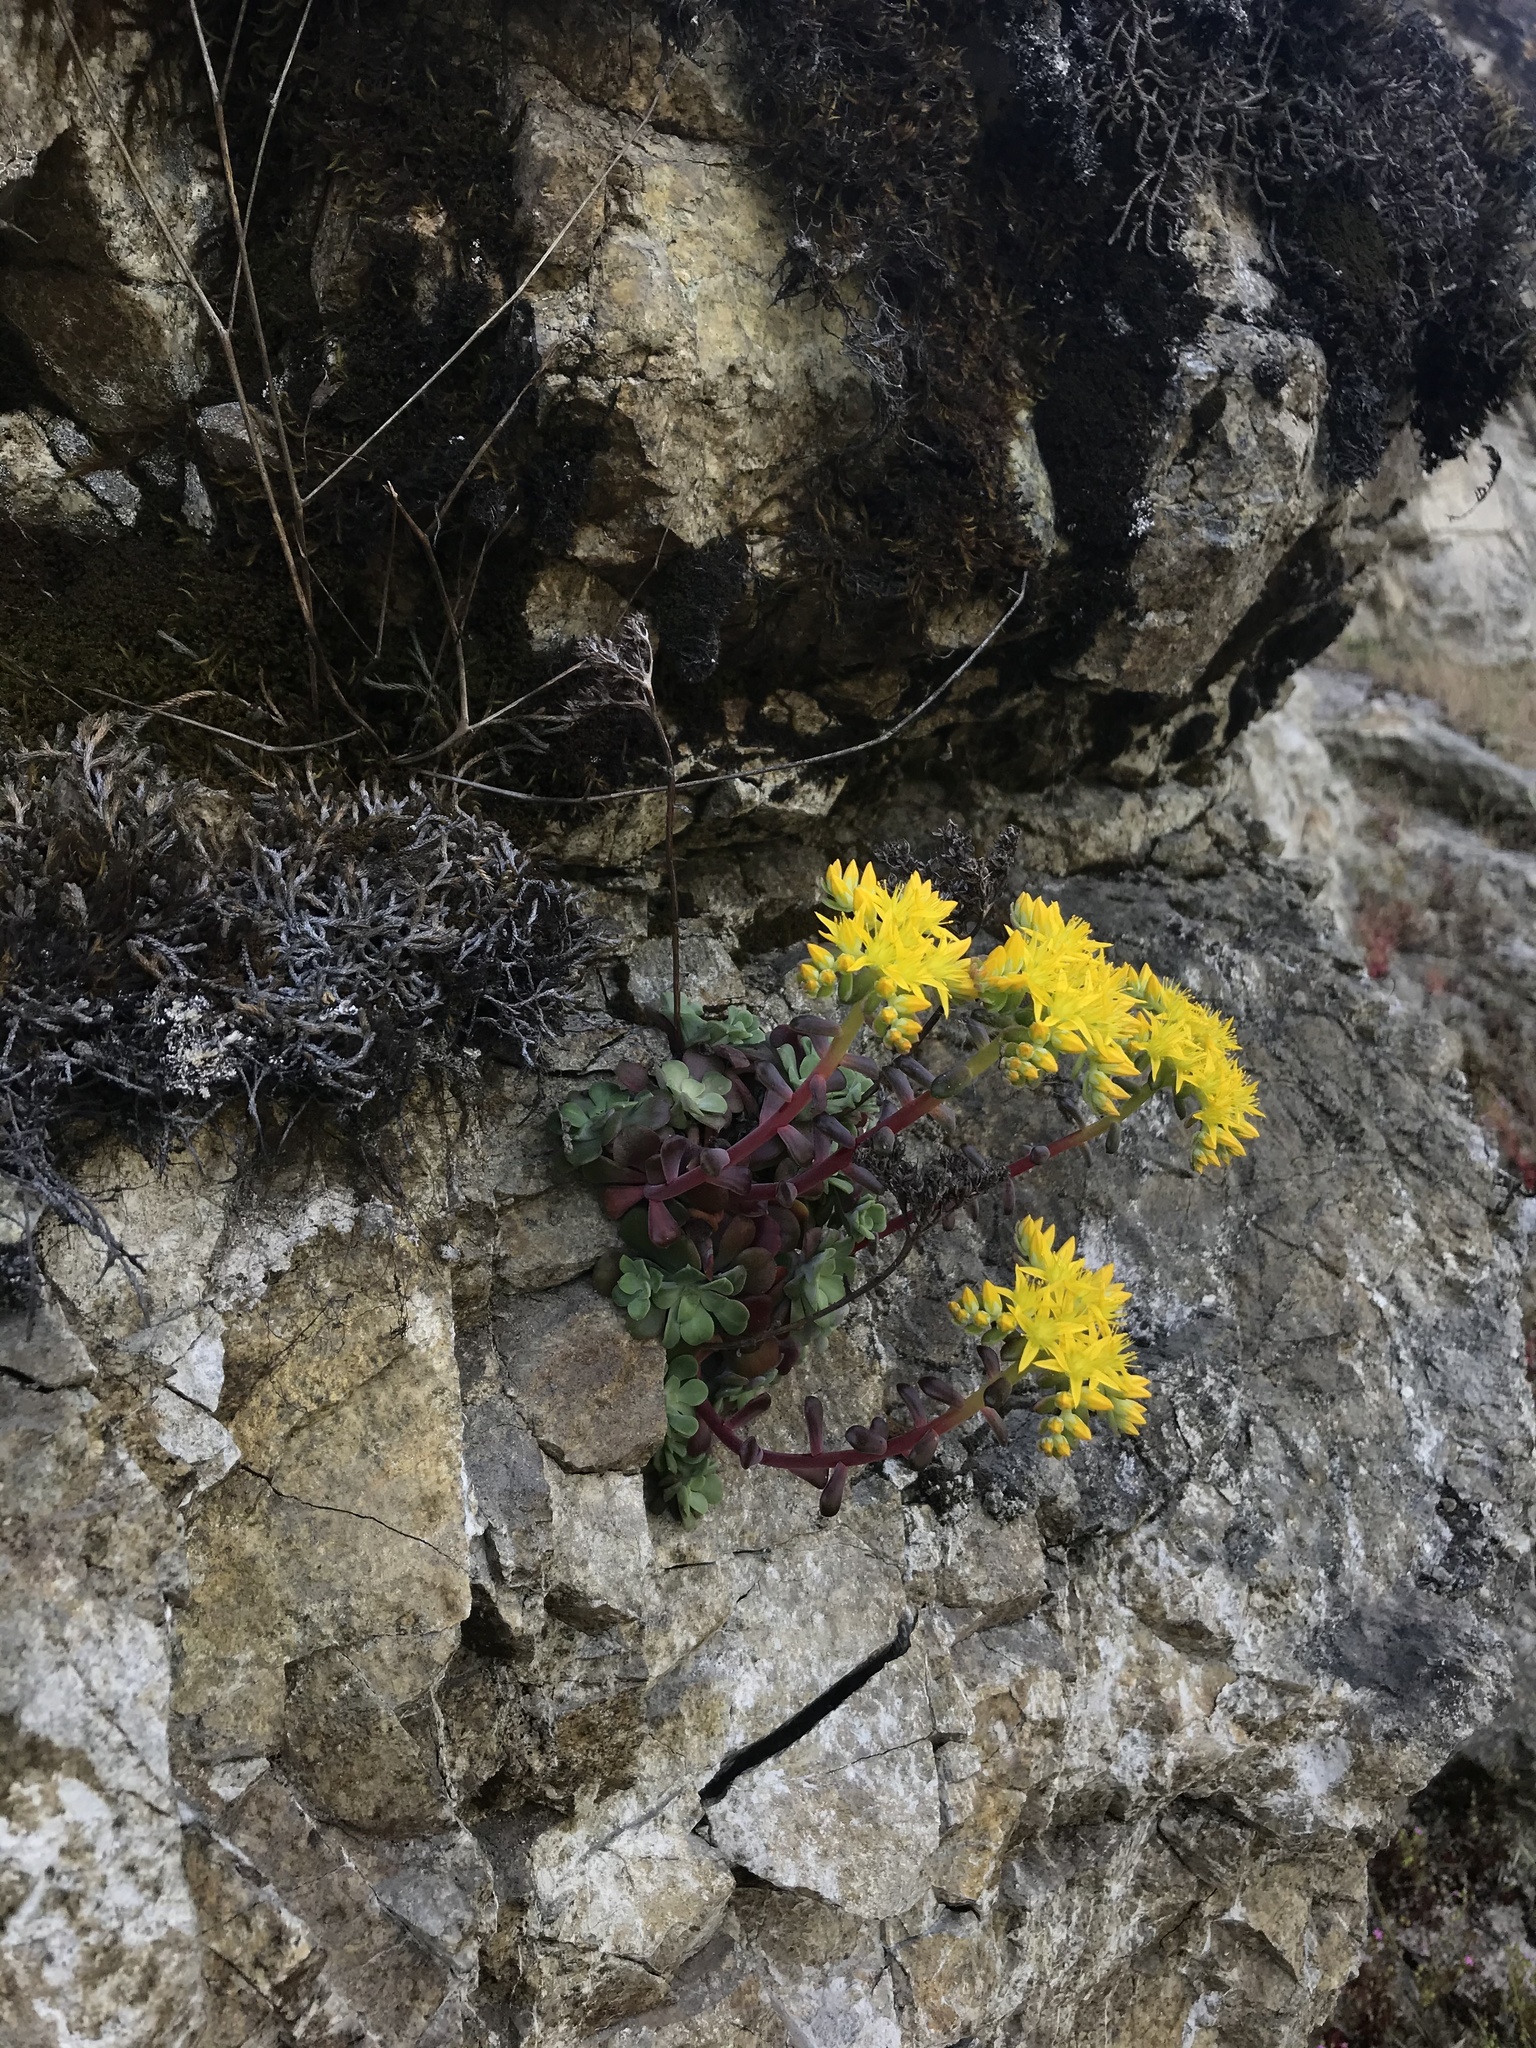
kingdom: Plantae
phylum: Tracheophyta
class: Magnoliopsida
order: Saxifragales
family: Crassulaceae
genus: Sedum
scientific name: Sedum spathulifolium
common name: Colorado stonecrop
